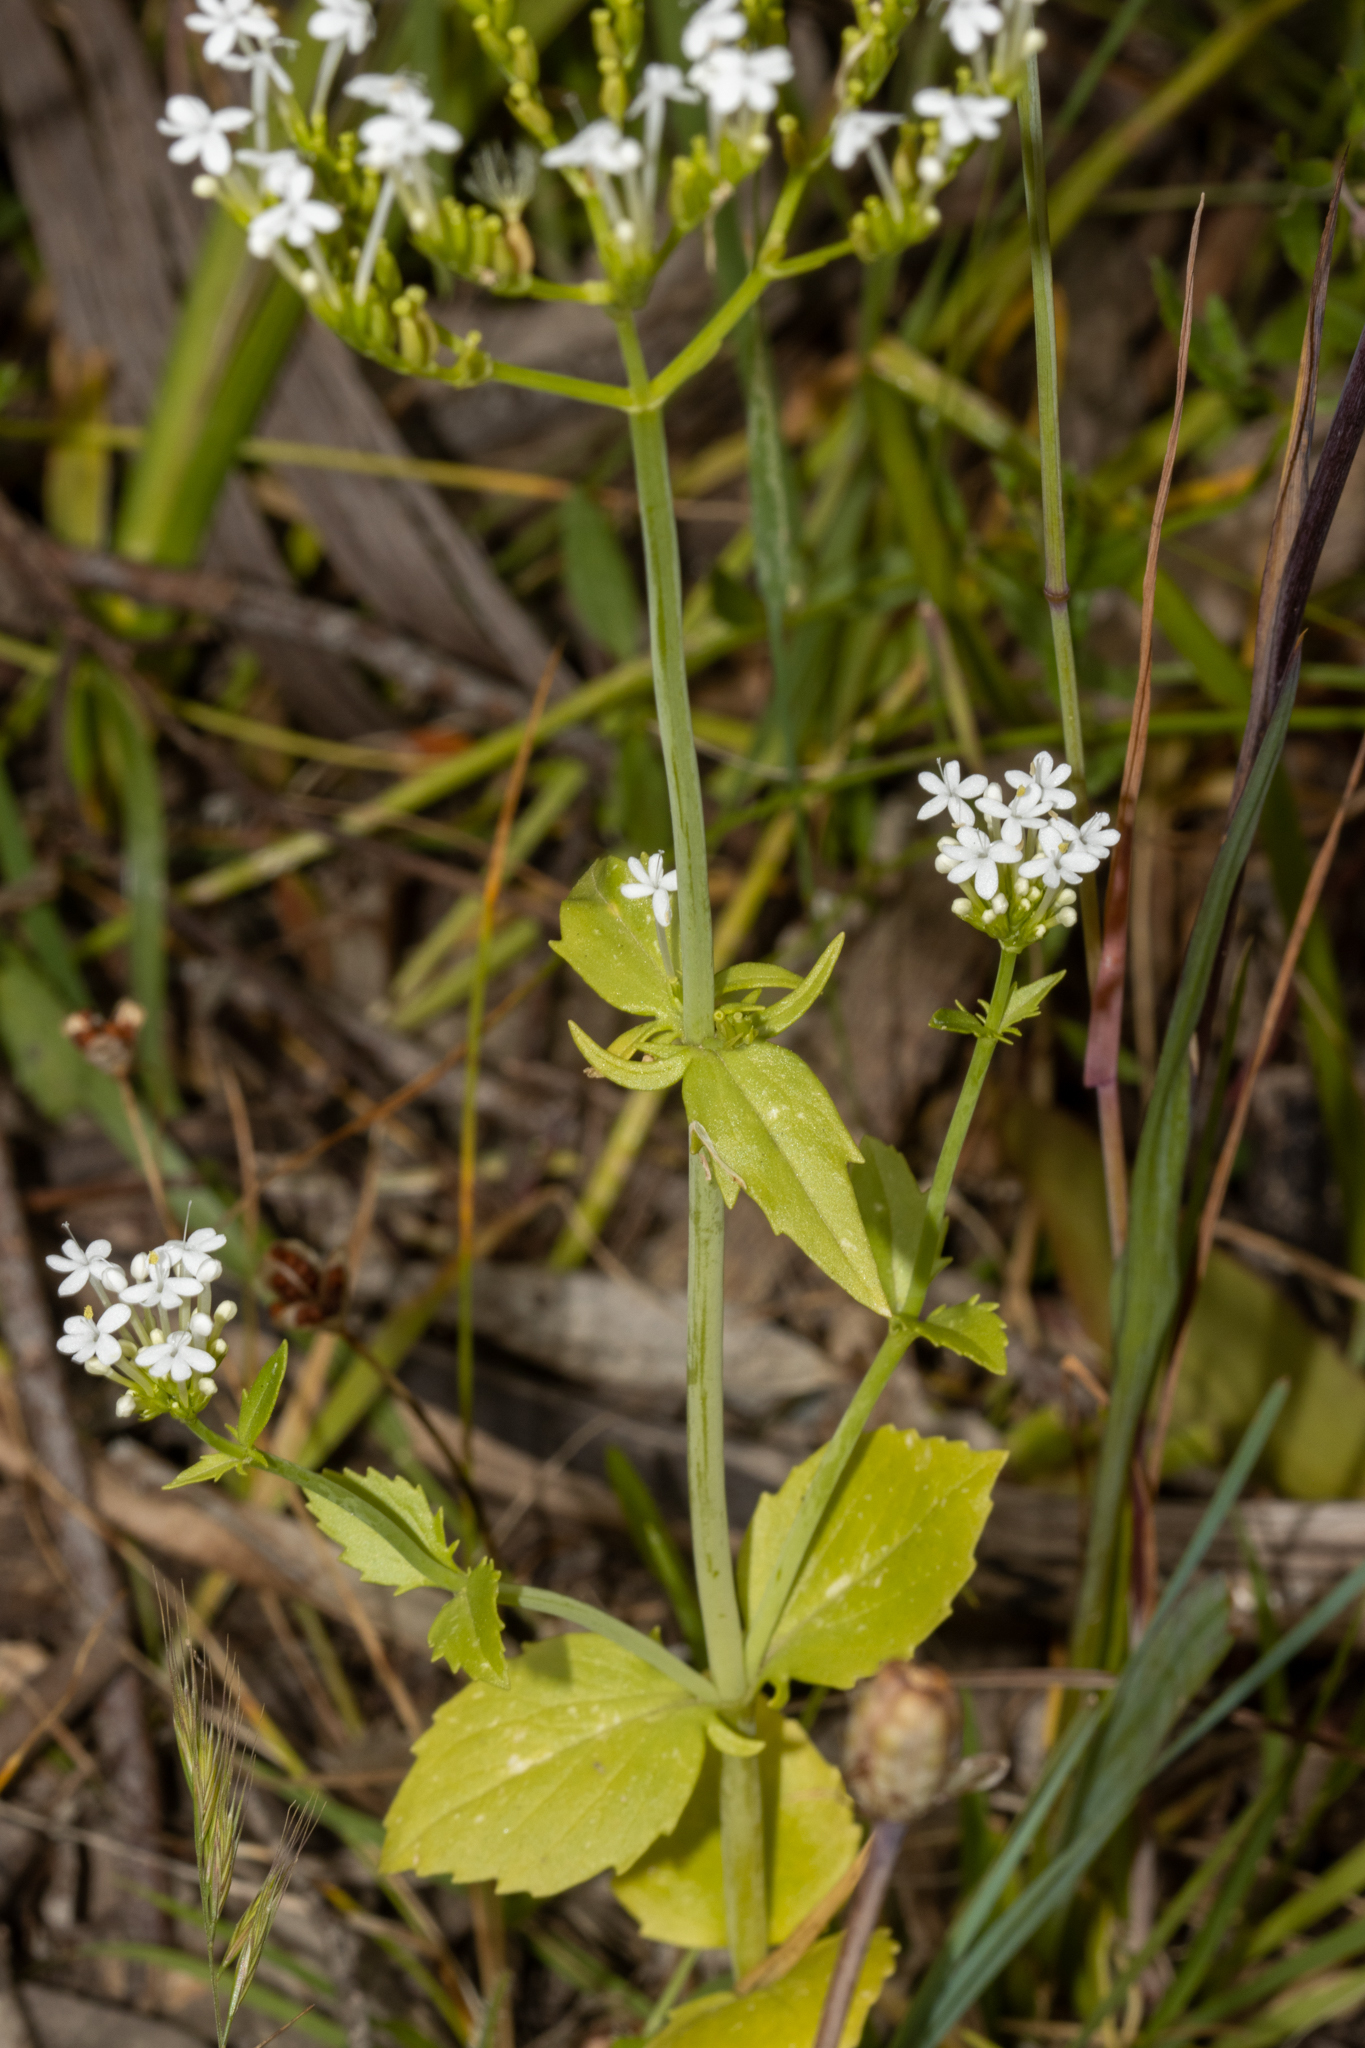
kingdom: Plantae
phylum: Tracheophyta
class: Magnoliopsida
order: Dipsacales
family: Caprifoliaceae
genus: Centranthus
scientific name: Centranthus macrosiphon
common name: Spanish-valerian
